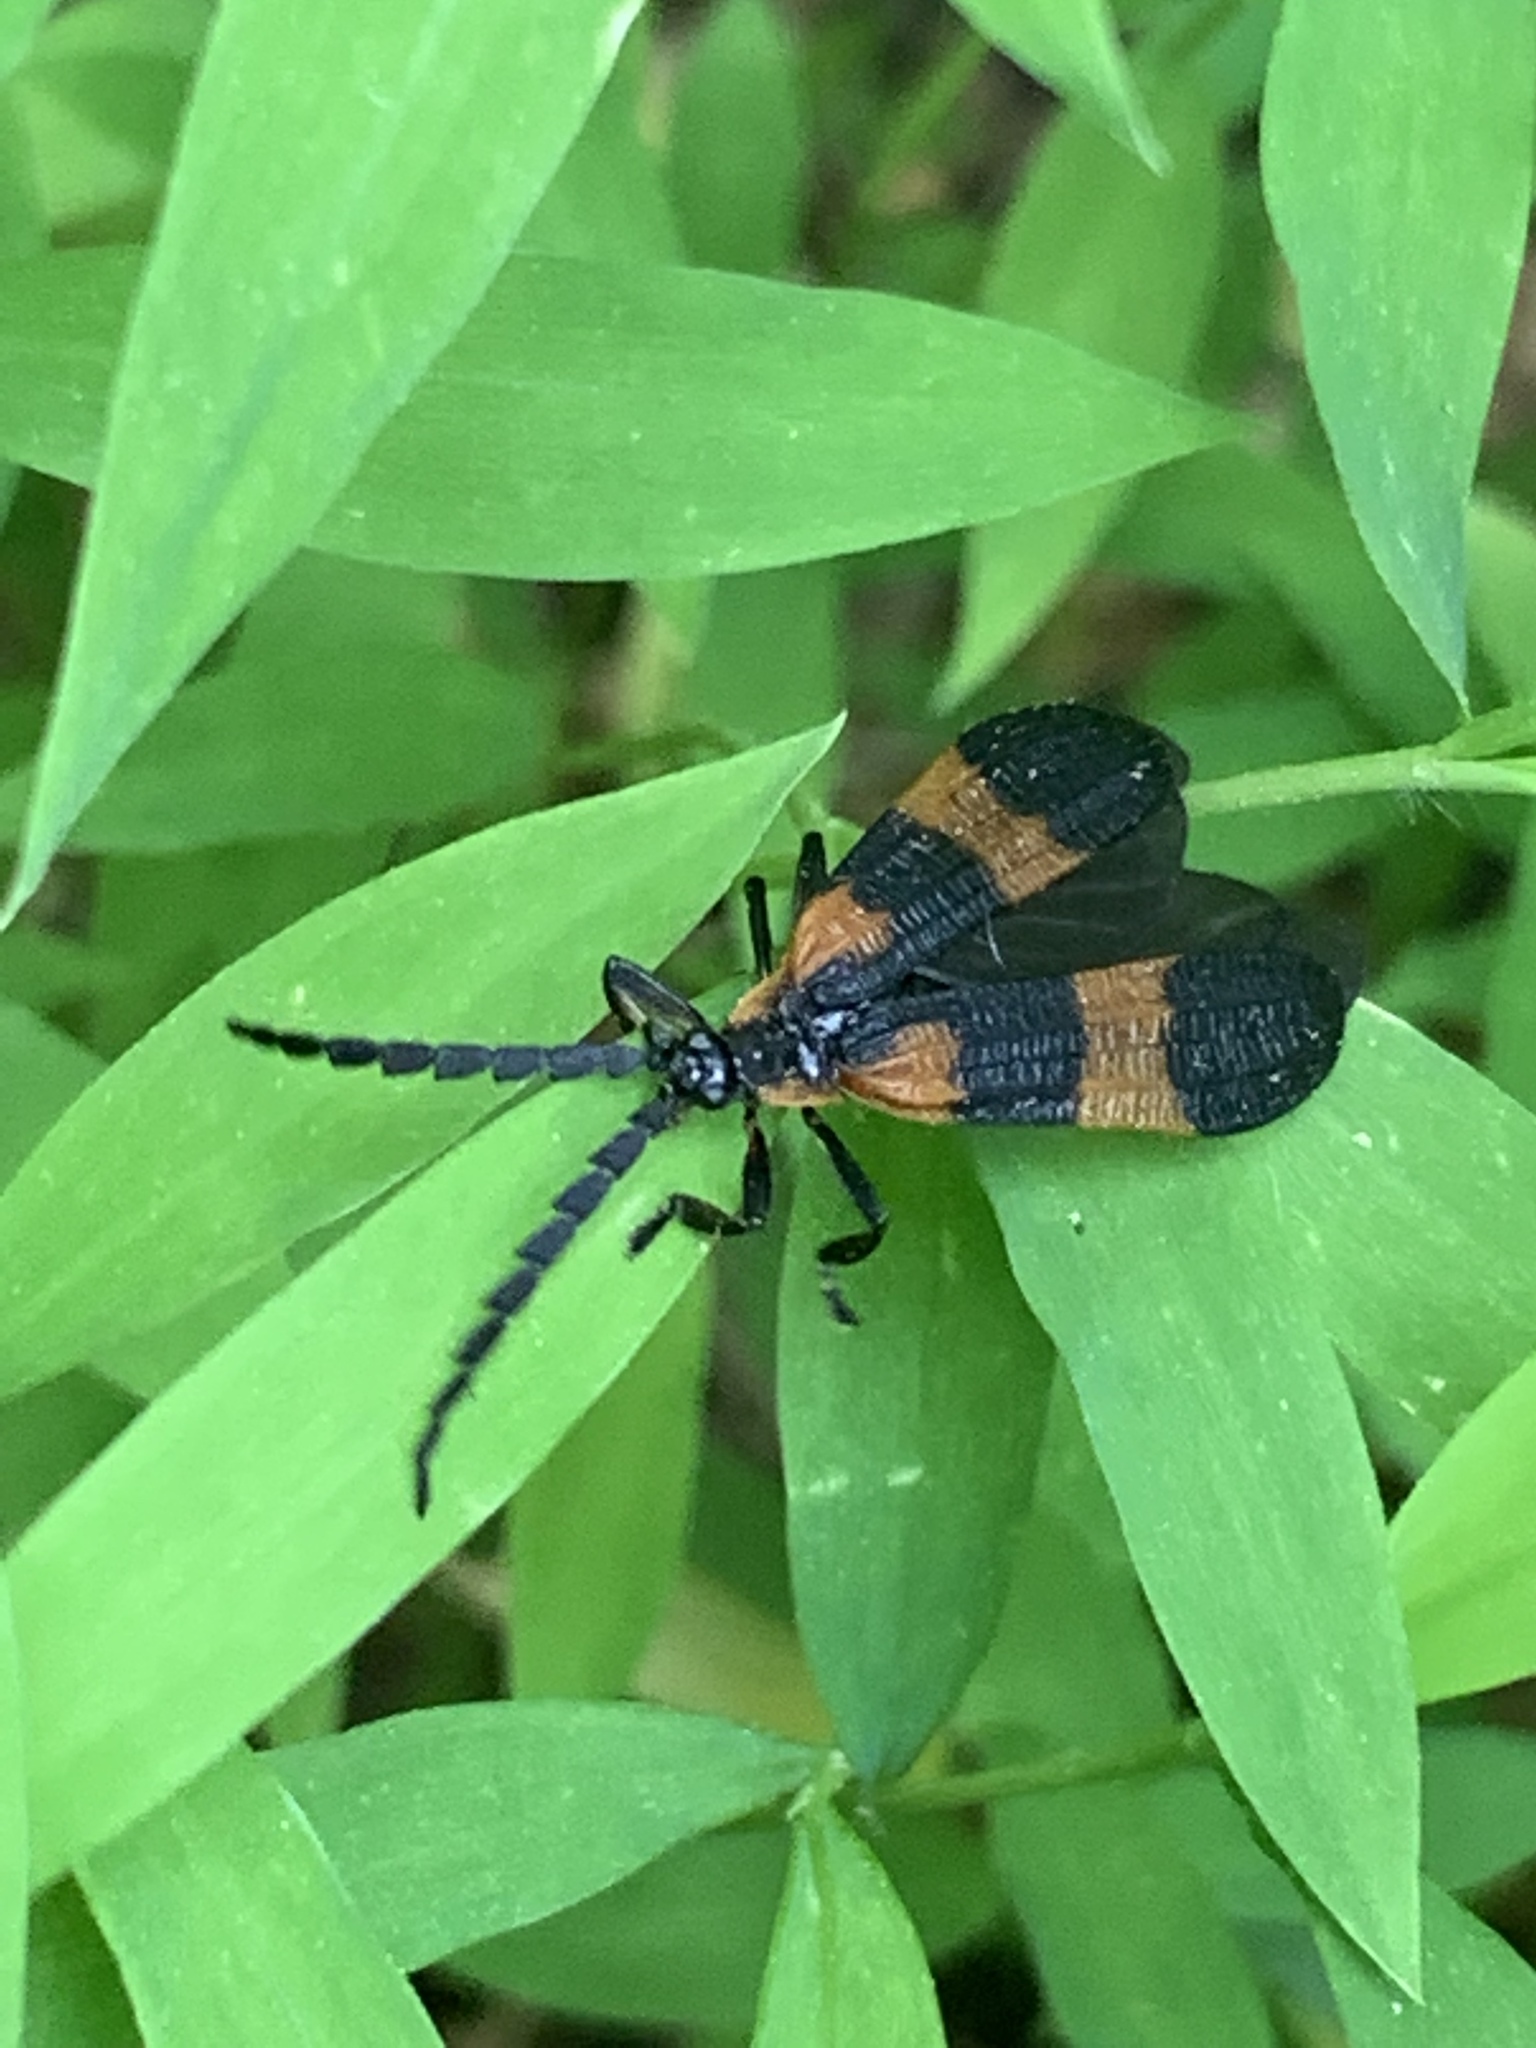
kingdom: Animalia
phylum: Arthropoda
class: Insecta
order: Coleoptera
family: Lycidae
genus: Calopteron
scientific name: Calopteron reticulatum
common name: Banded net-winged beetle
